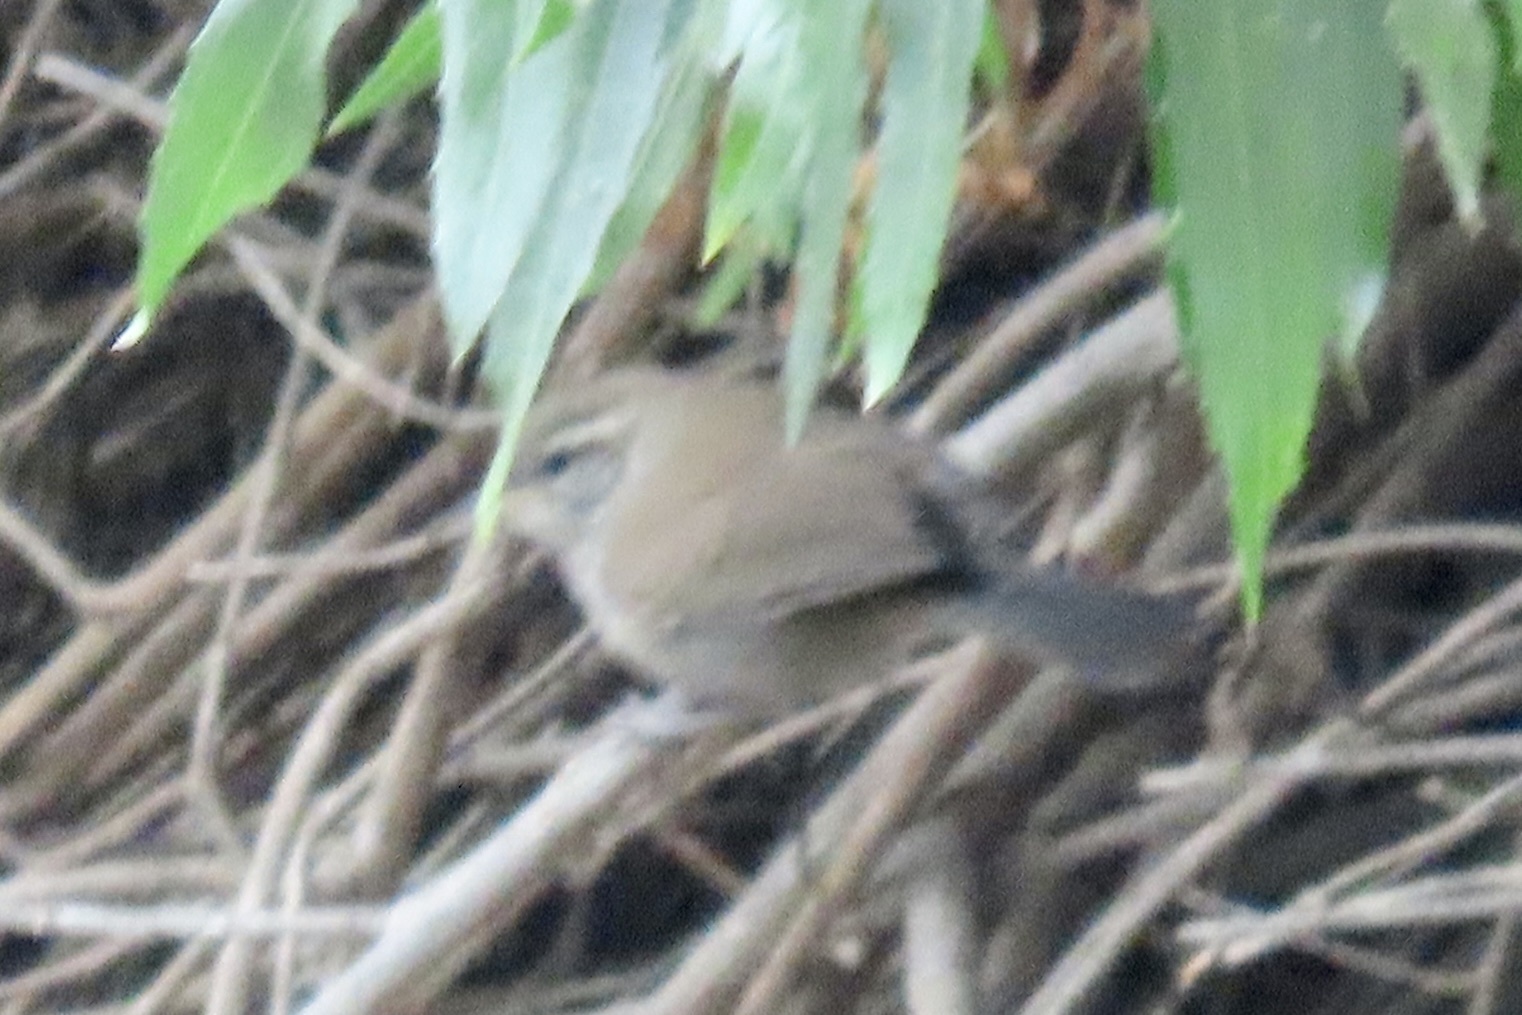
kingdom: Animalia
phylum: Chordata
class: Aves
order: Passeriformes
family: Troglodytidae
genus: Thryomanes
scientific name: Thryomanes bewickii
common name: Bewick's wren
